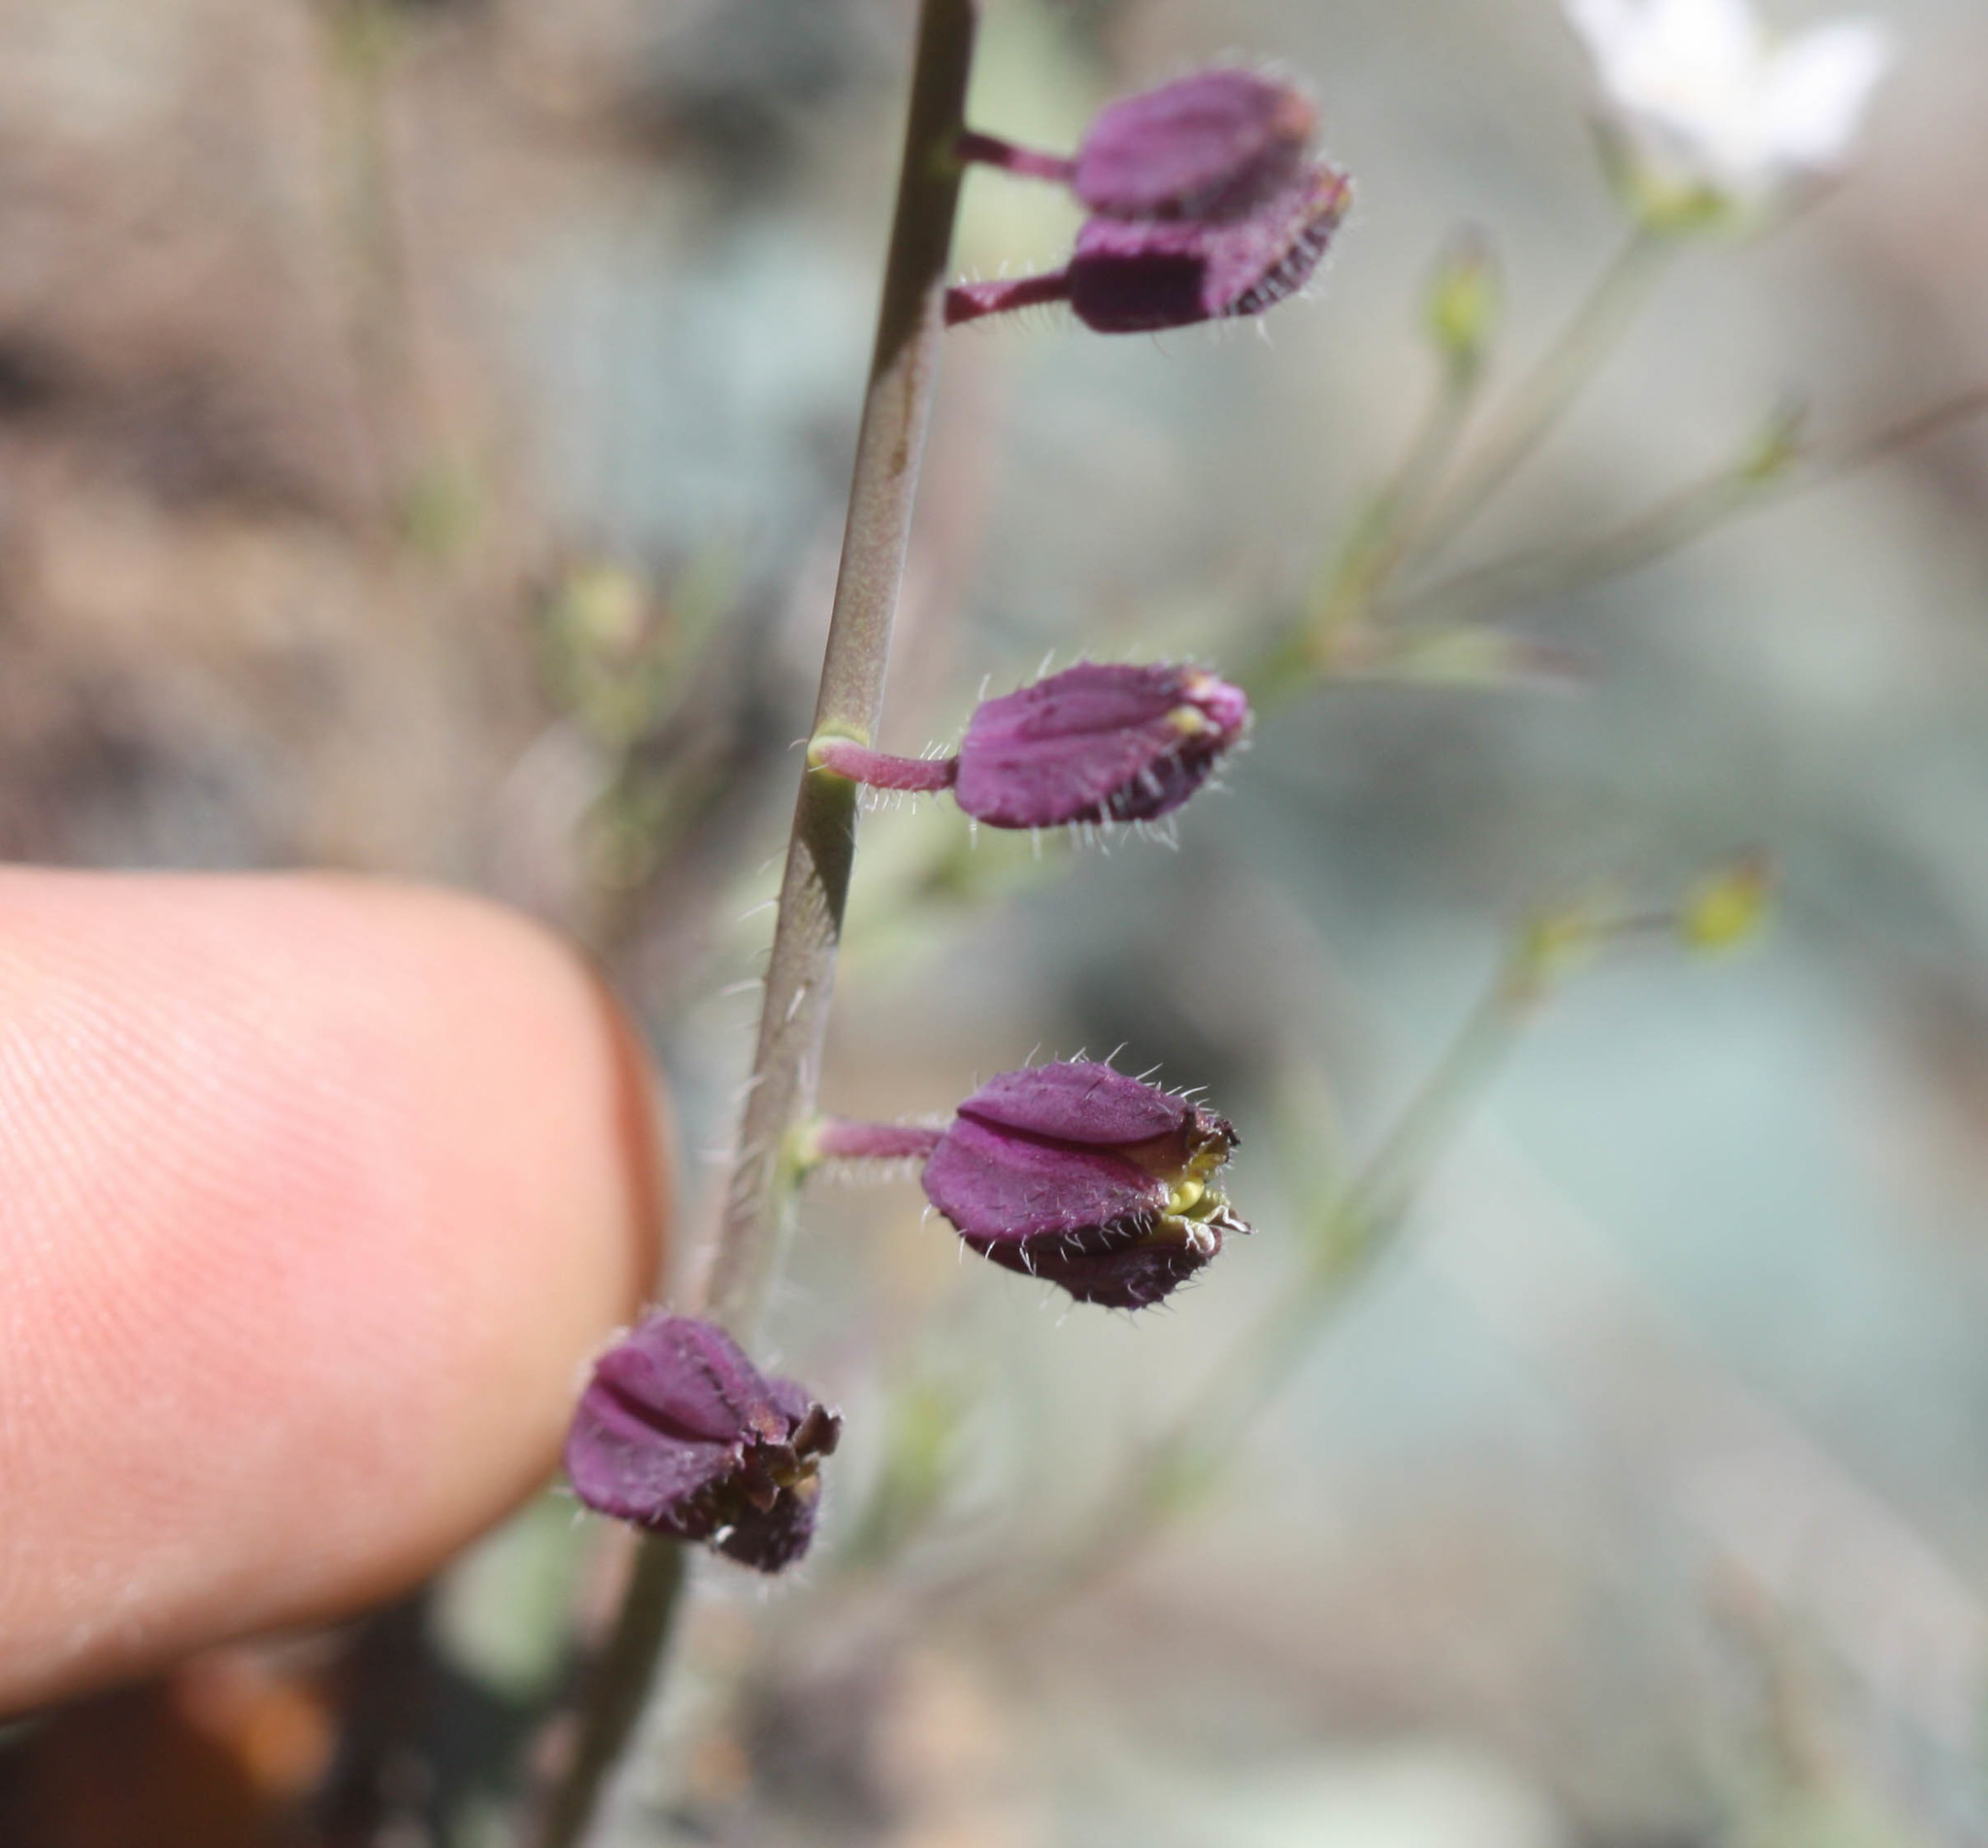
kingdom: Plantae
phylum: Tracheophyta
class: Magnoliopsida
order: Brassicales
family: Brassicaceae
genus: Streptanthus
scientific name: Streptanthus glandulosus
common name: Jewel-flower
